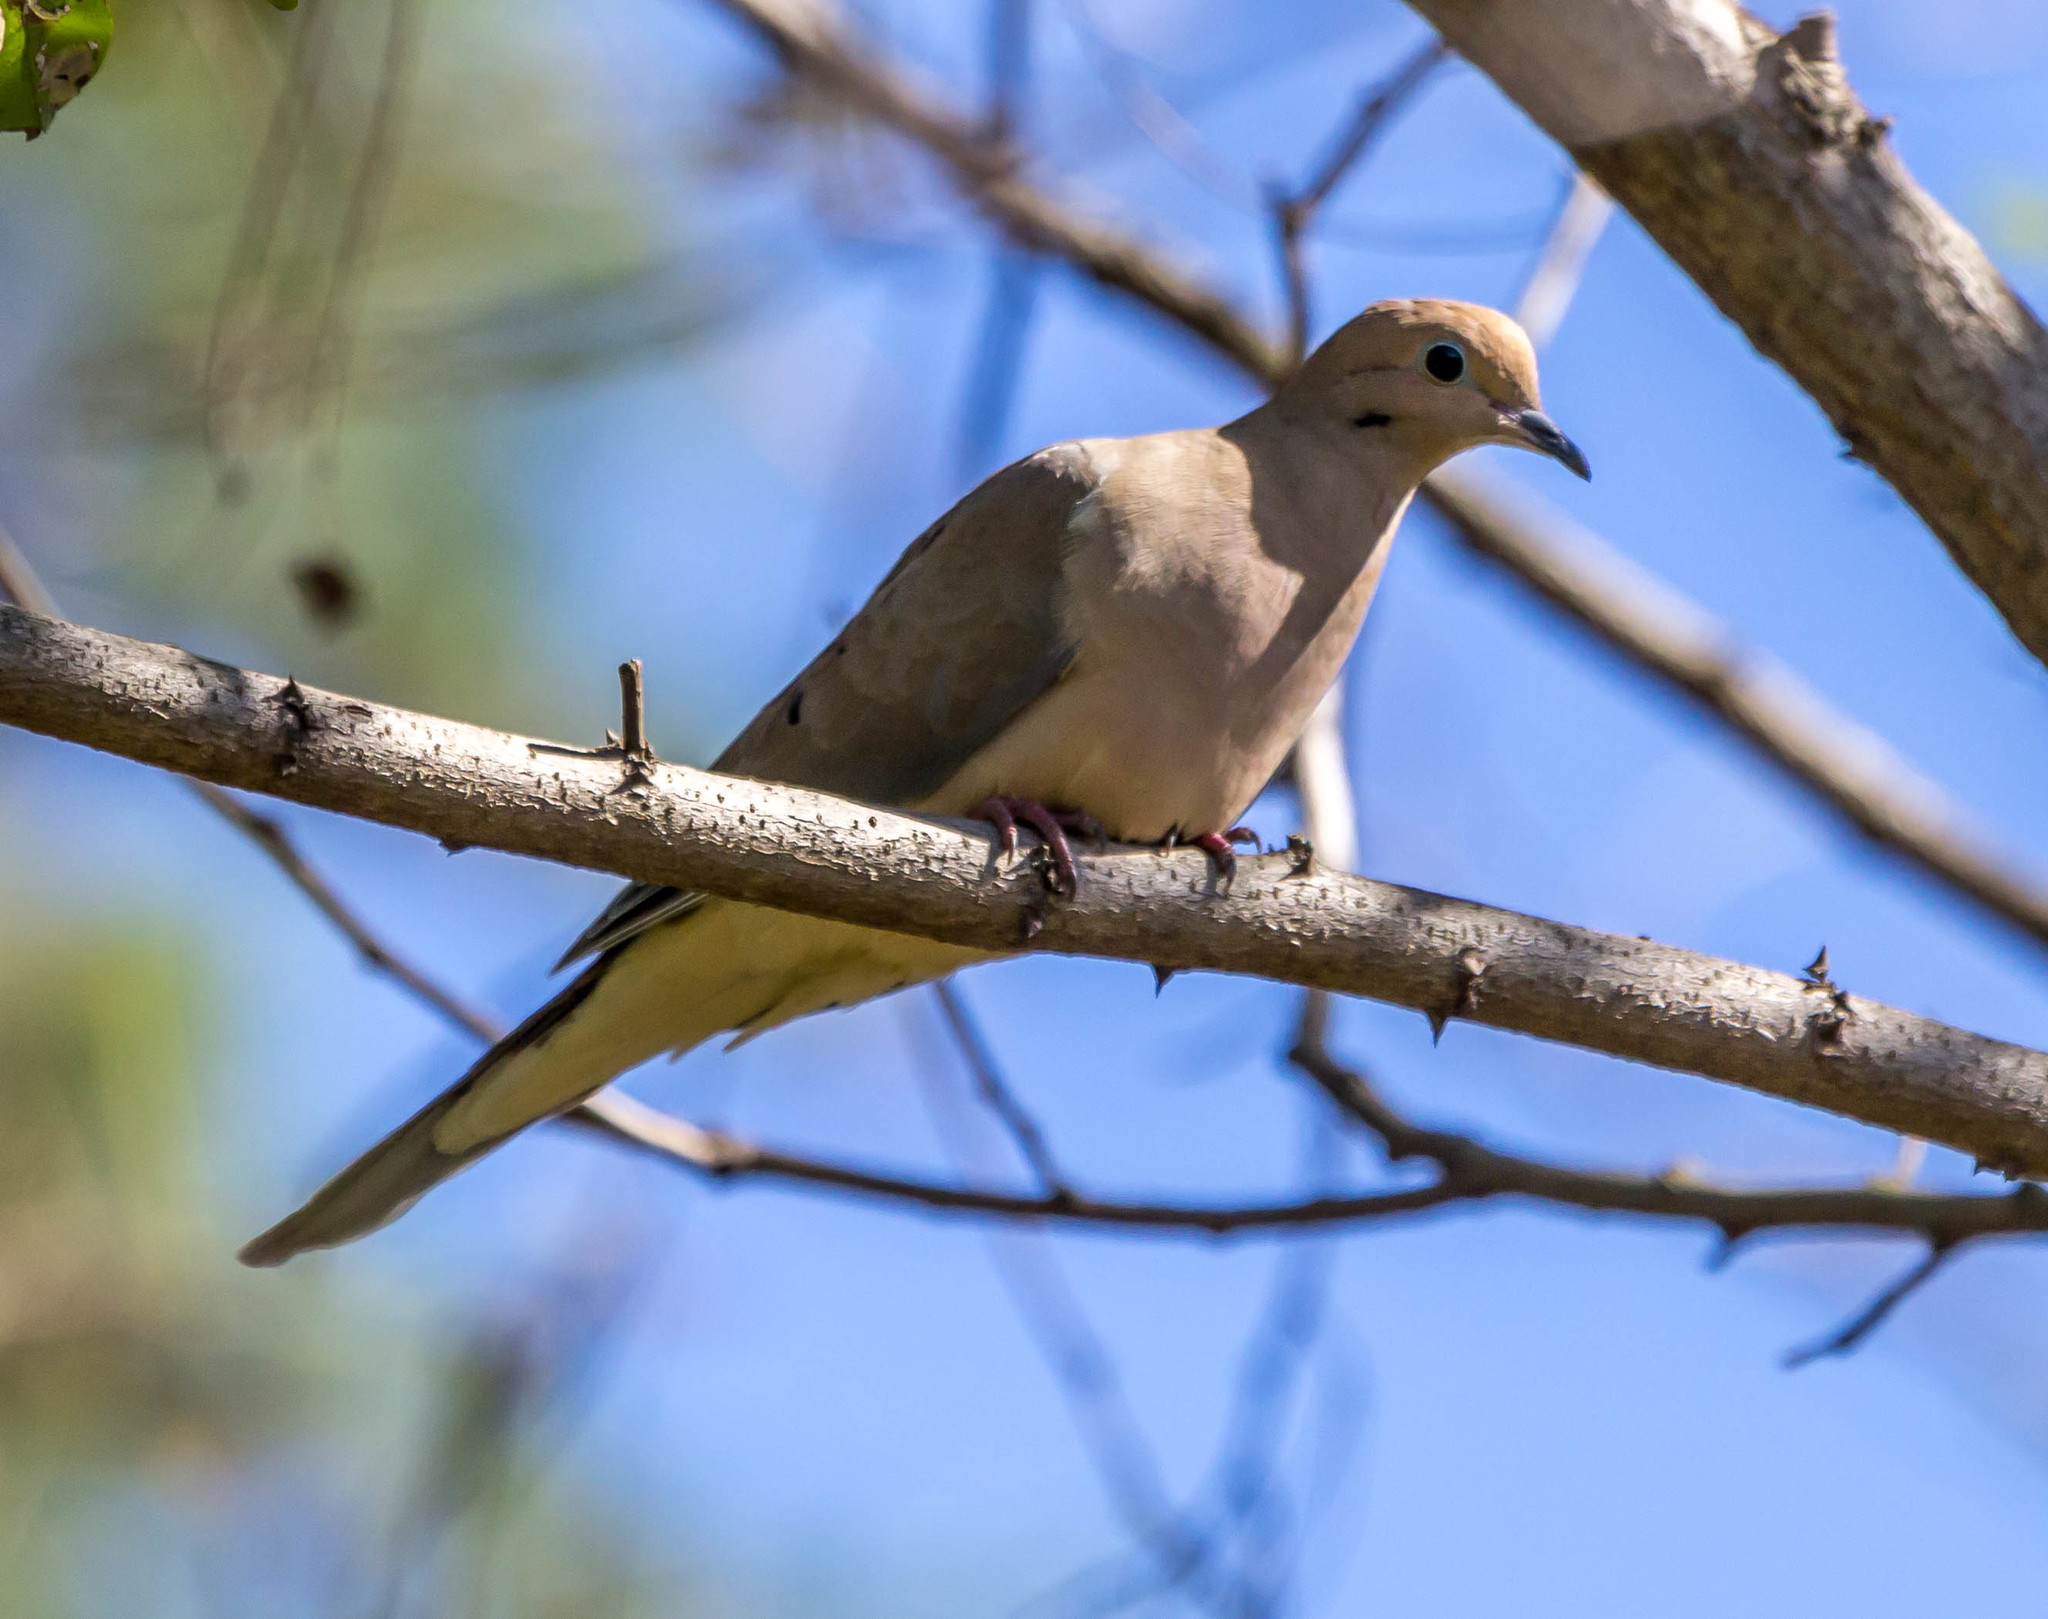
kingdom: Animalia
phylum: Chordata
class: Aves
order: Columbiformes
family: Columbidae
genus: Zenaida
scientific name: Zenaida macroura
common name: Mourning dove
